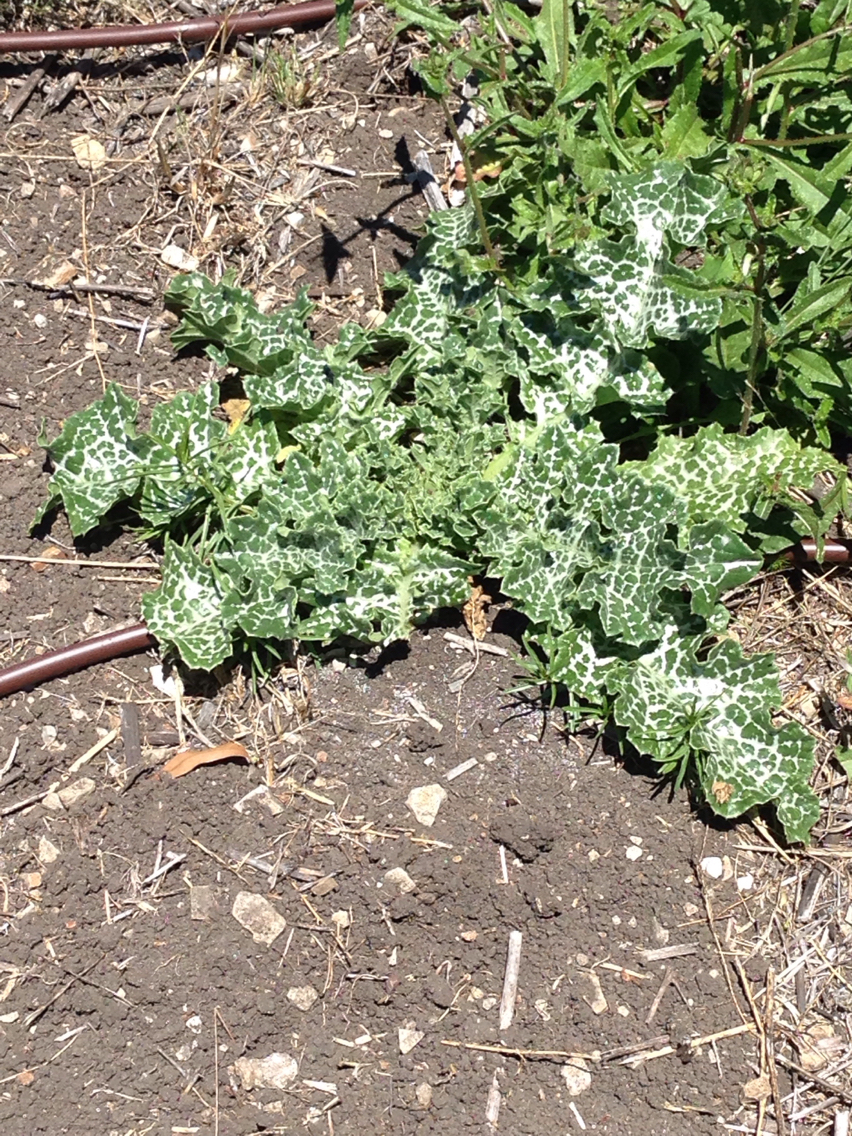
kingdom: Plantae
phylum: Tracheophyta
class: Magnoliopsida
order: Asterales
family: Asteraceae
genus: Silybum
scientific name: Silybum marianum
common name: Milk thistle
